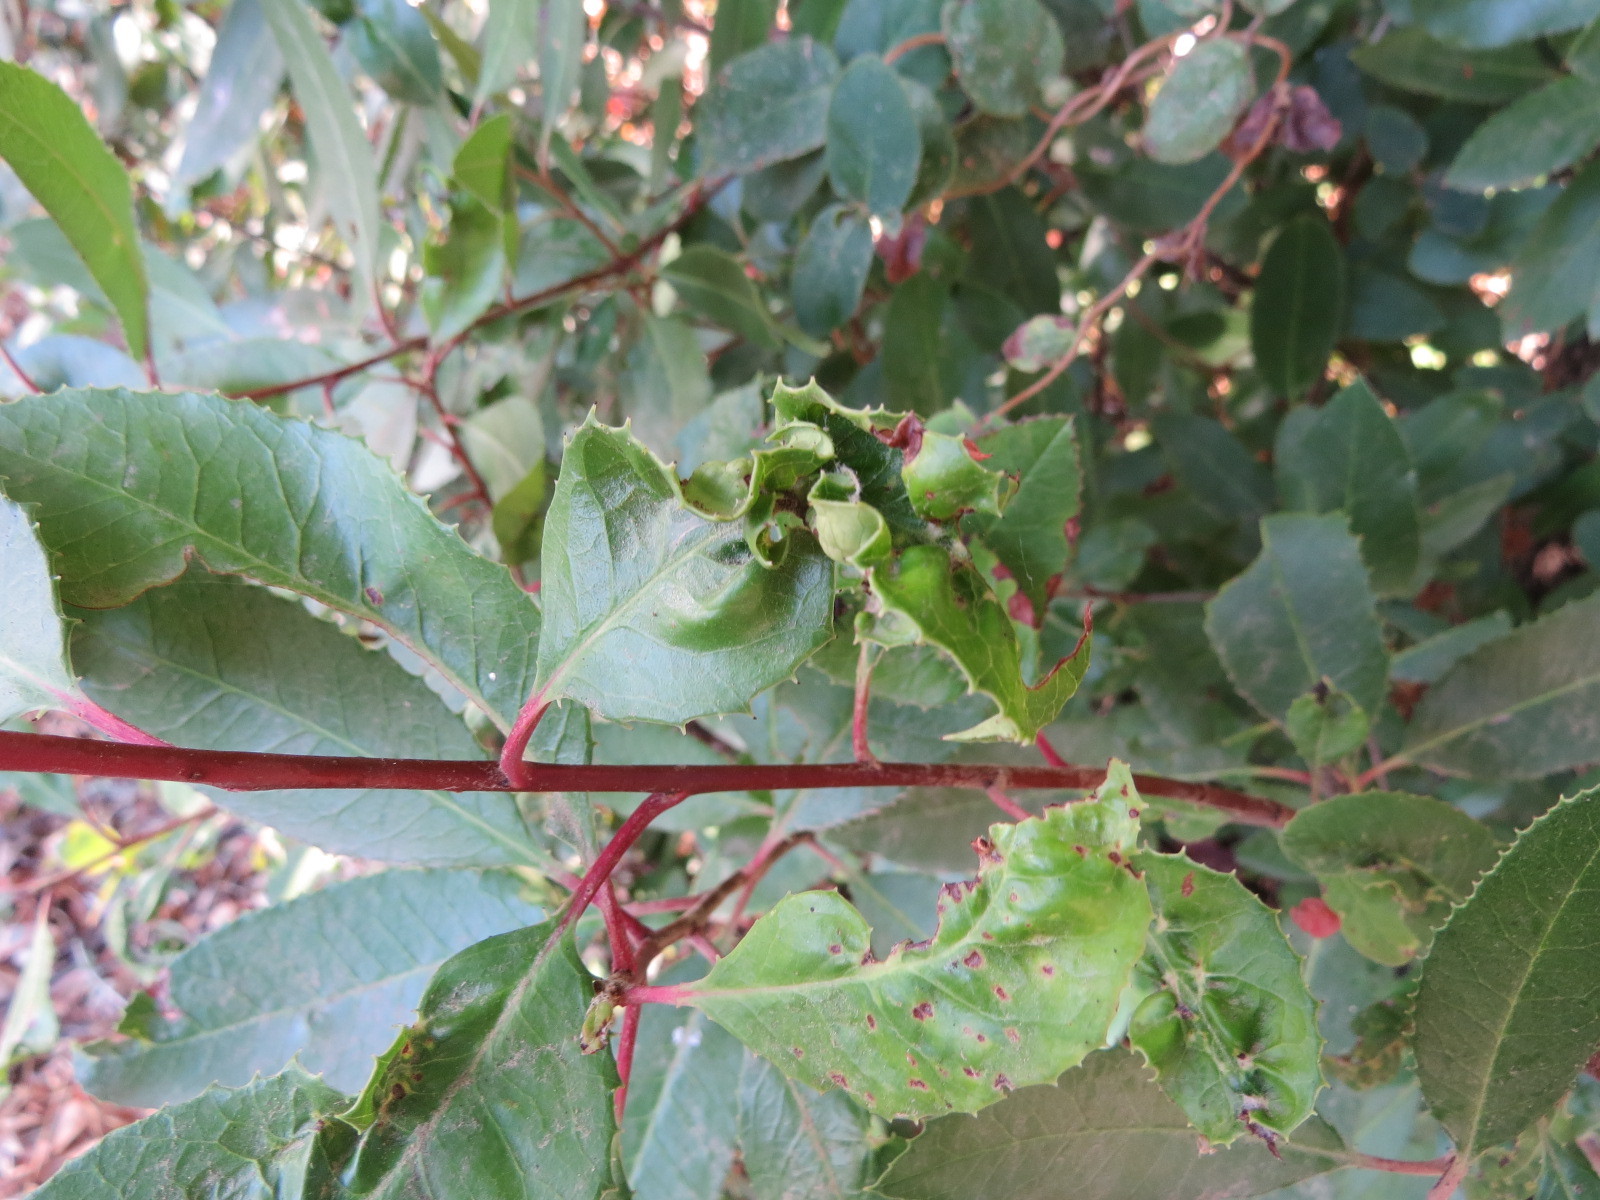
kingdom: Animalia
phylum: Arthropoda
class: Insecta
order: Thysanoptera
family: Phlaeothripidae
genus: Liothrips
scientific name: Liothrips ilex
